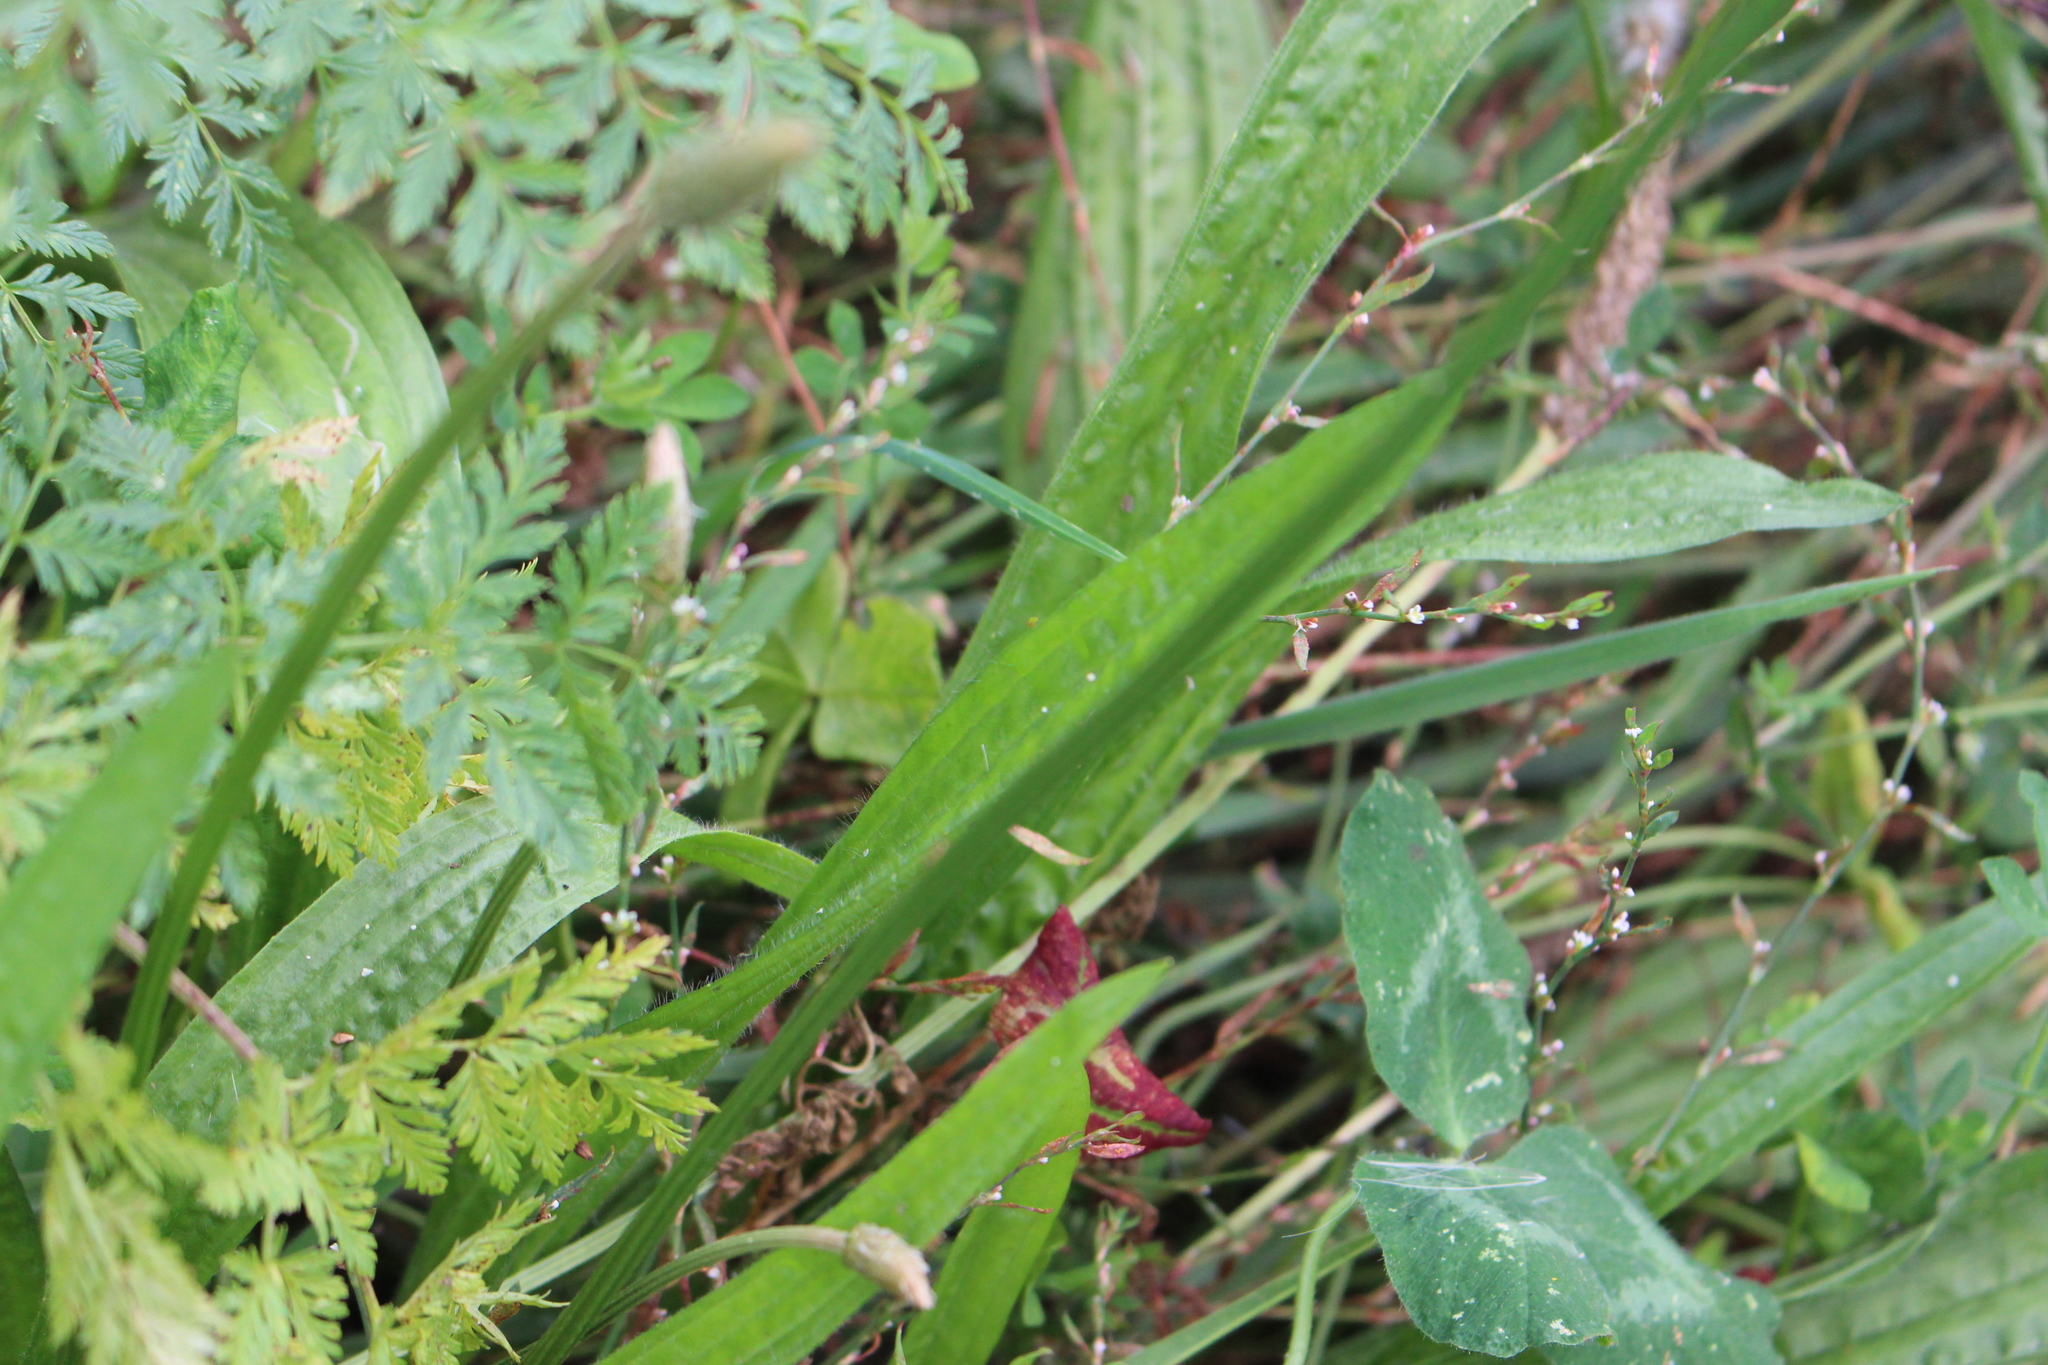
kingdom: Plantae
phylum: Tracheophyta
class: Magnoliopsida
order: Lamiales
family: Plantaginaceae
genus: Plantago
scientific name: Plantago lanceolata
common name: Ribwort plantain
